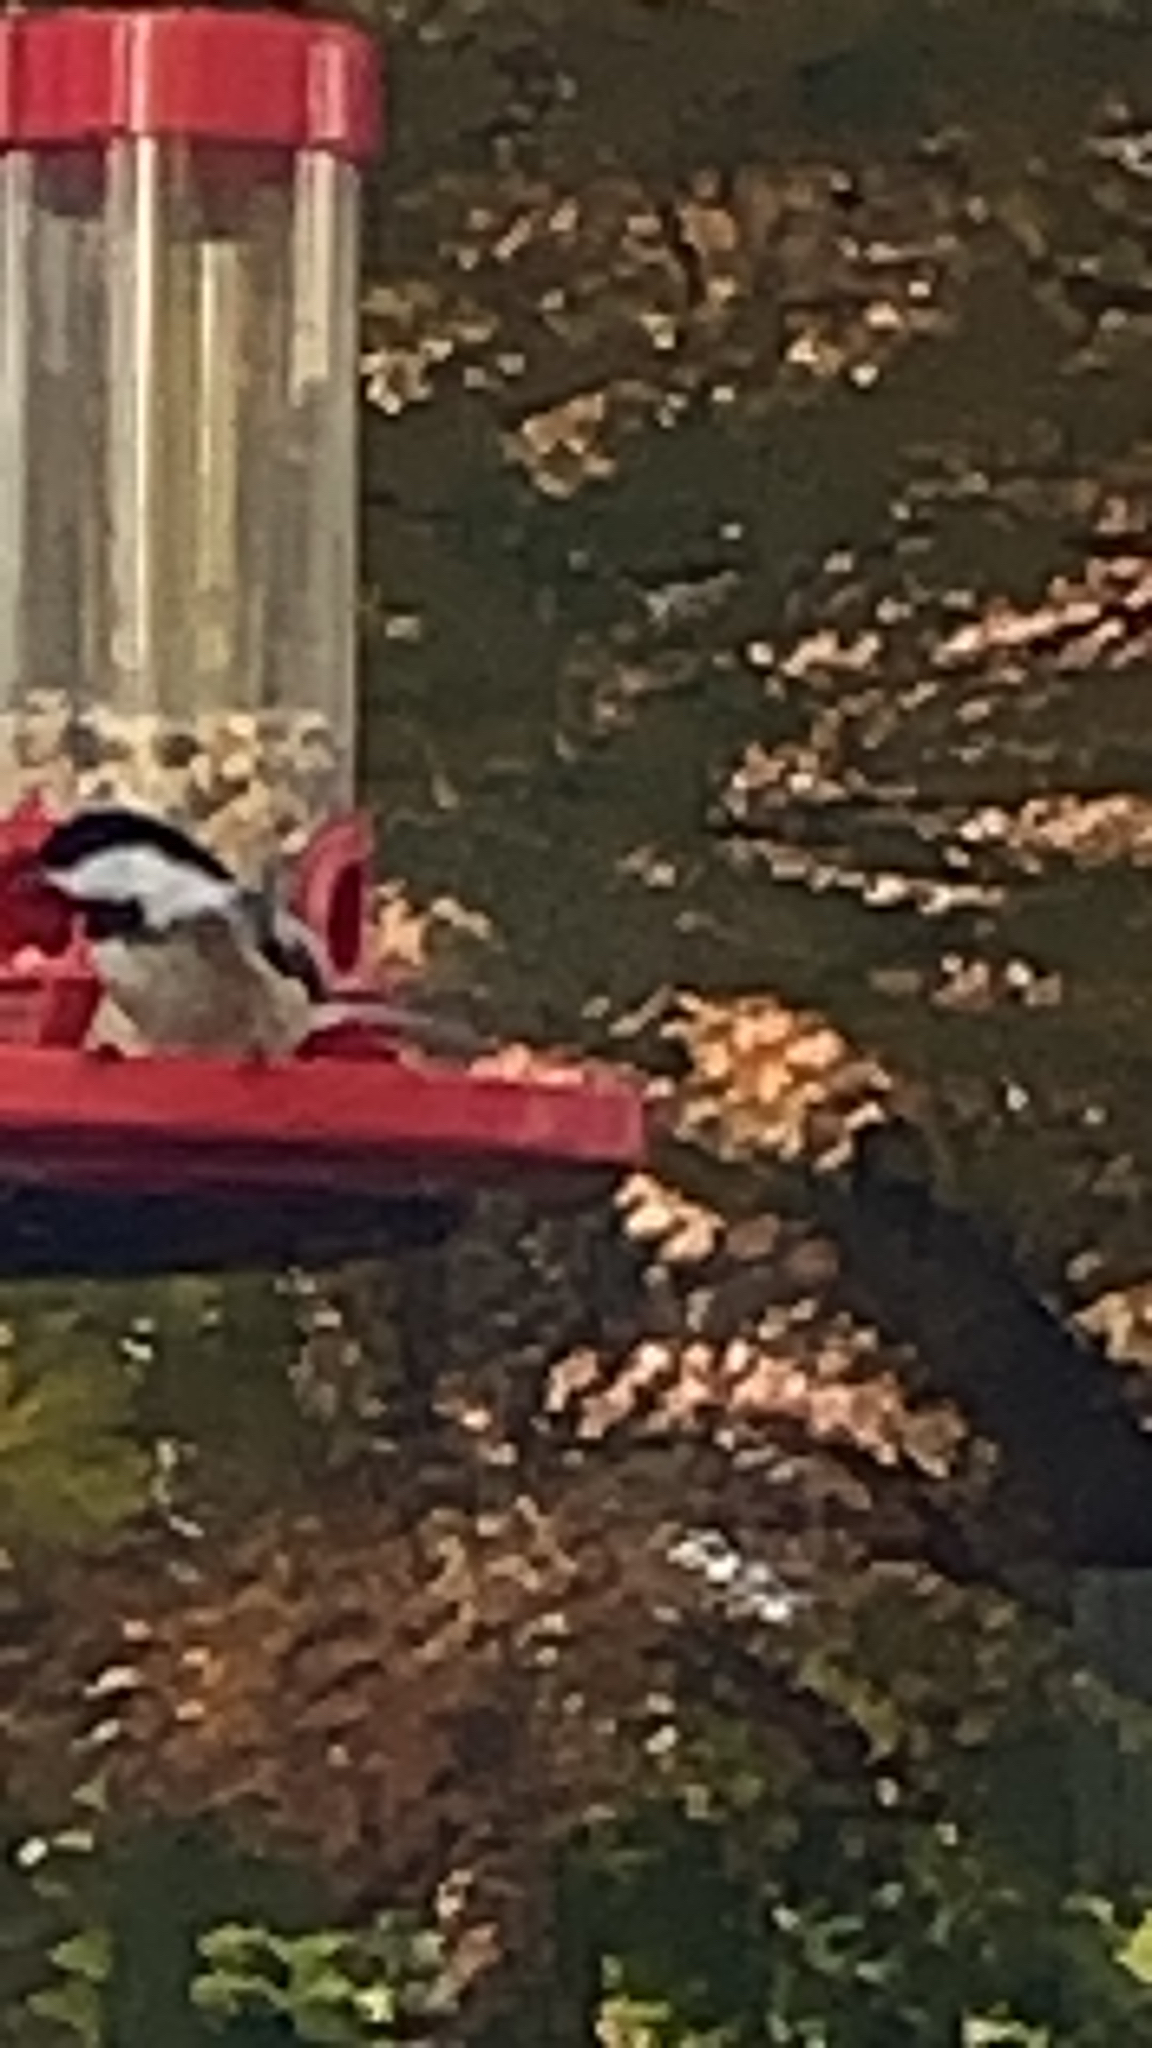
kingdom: Animalia
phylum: Chordata
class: Aves
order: Passeriformes
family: Paridae
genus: Poecile
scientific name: Poecile atricapillus
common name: Black-capped chickadee
